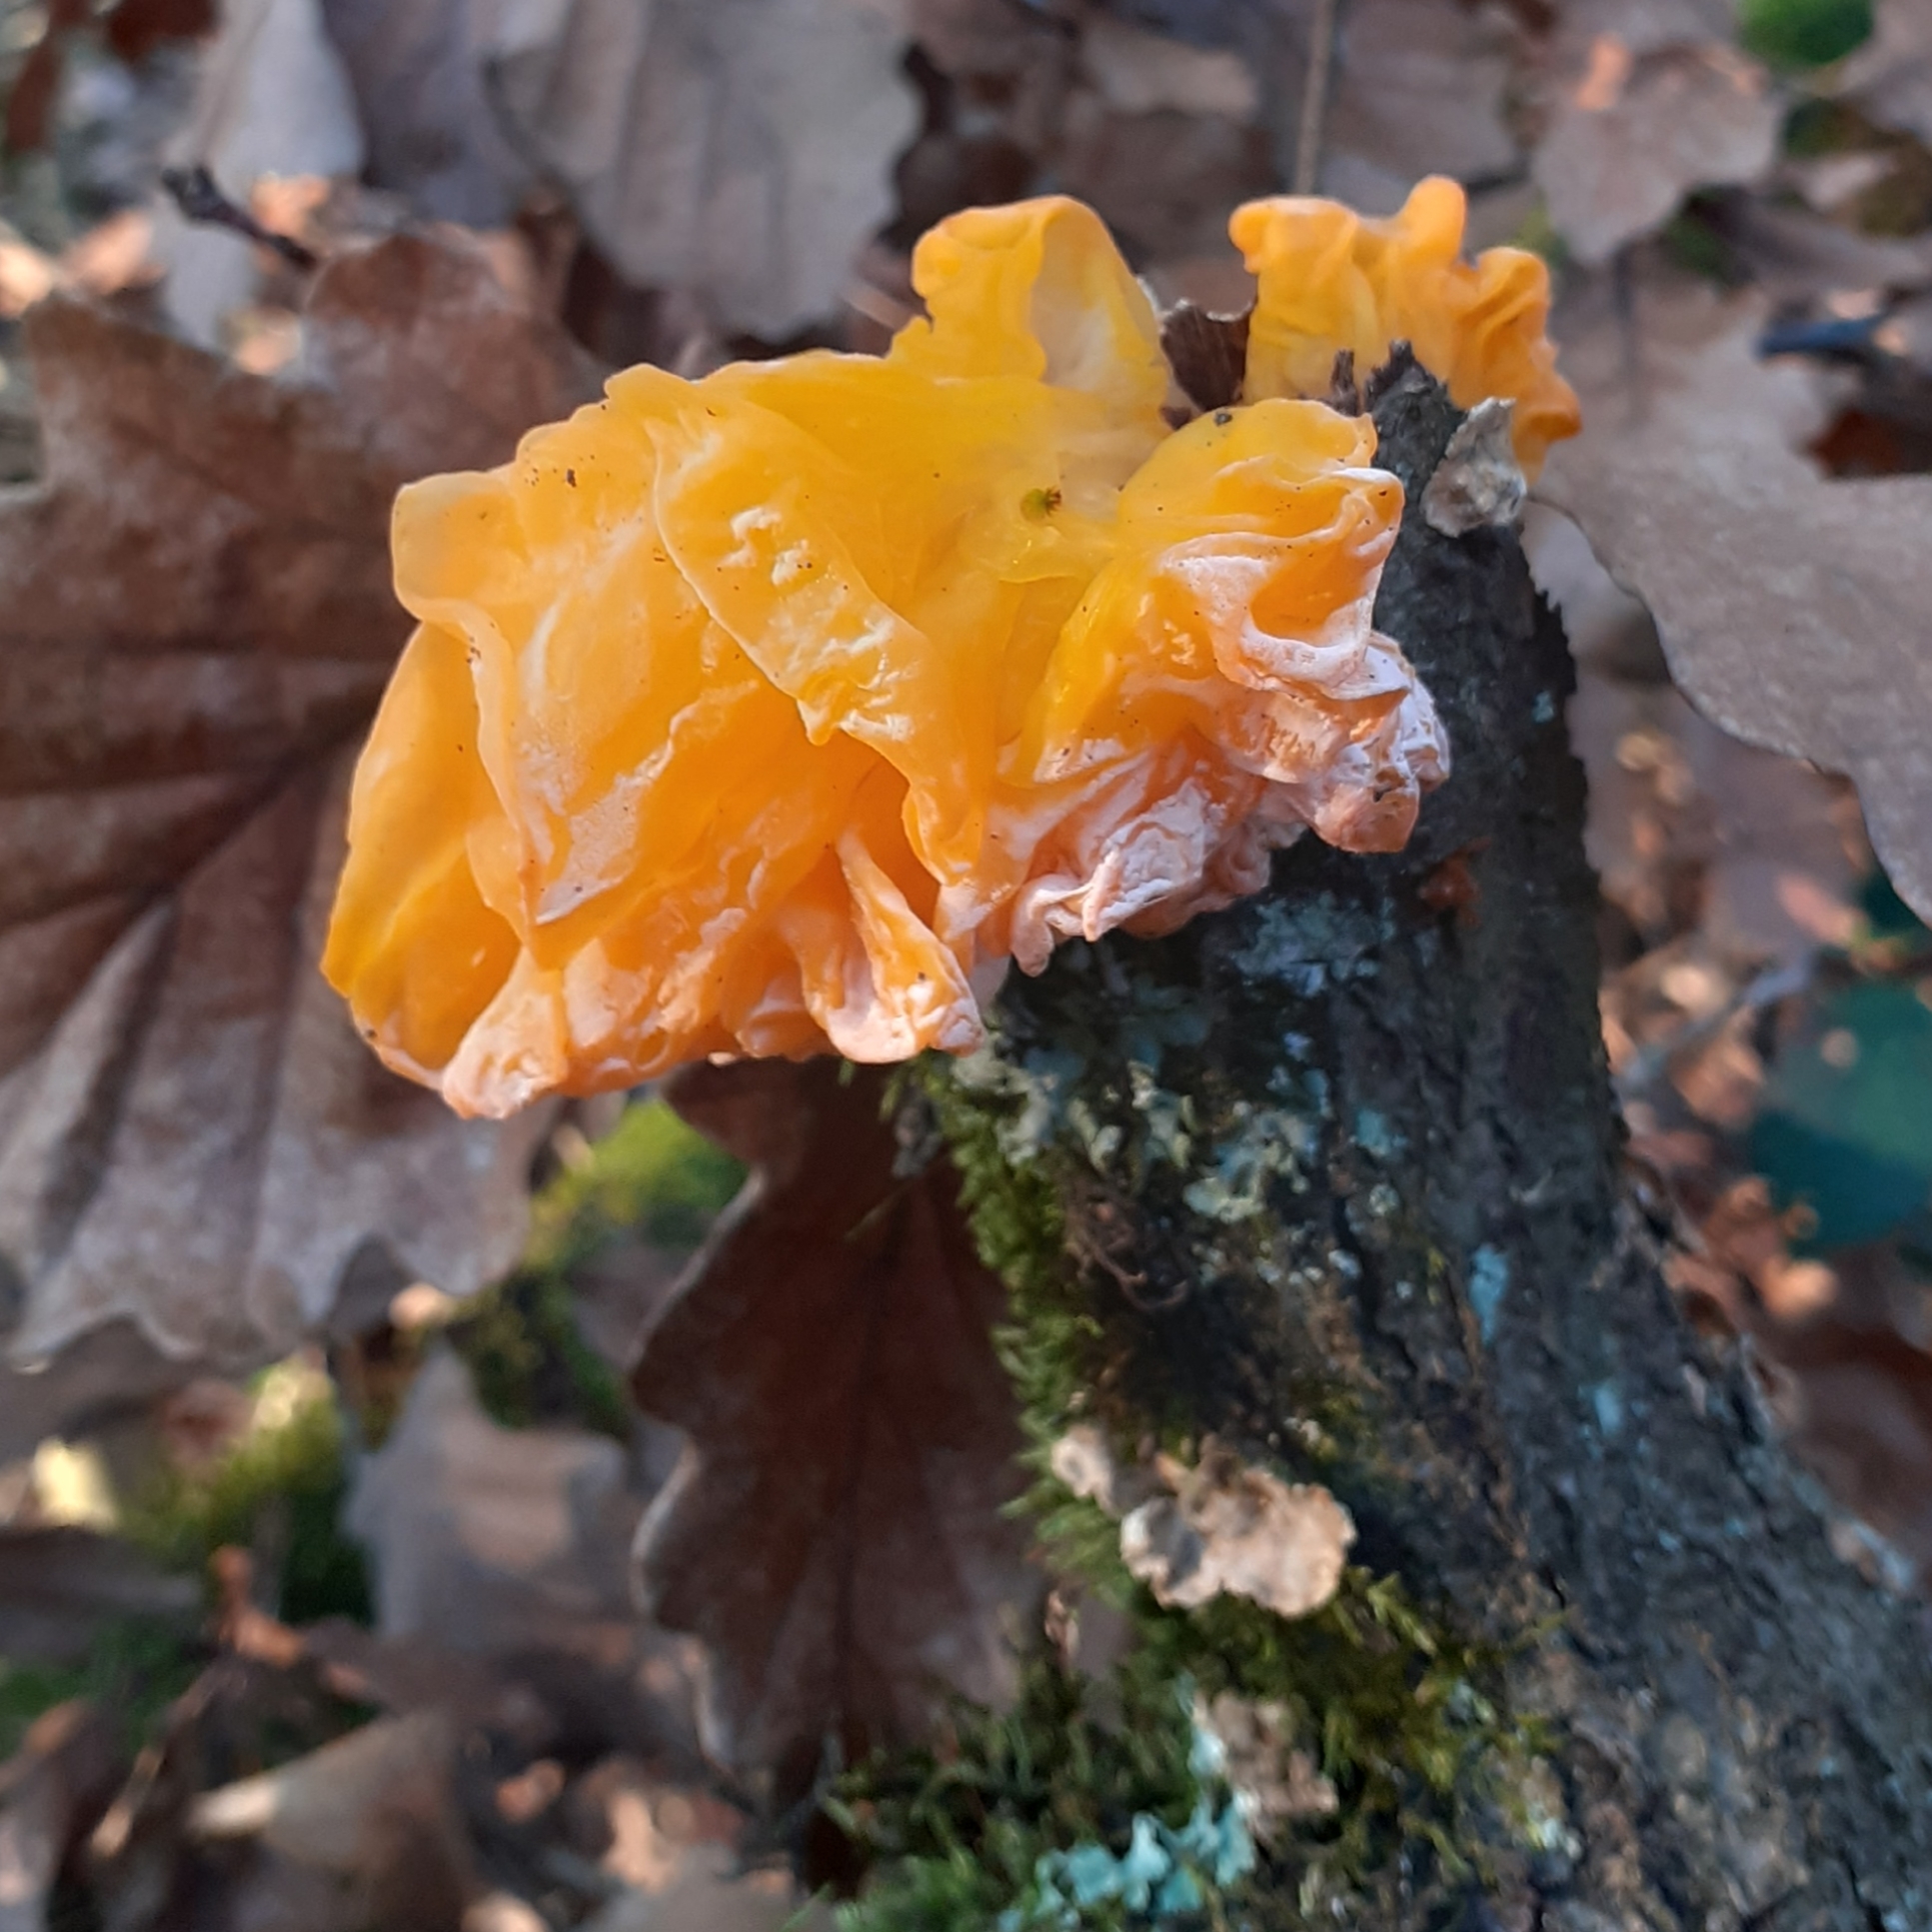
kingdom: Fungi
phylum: Basidiomycota
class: Tremellomycetes
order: Tremellales
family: Naemateliaceae
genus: Naematelia
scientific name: Naematelia aurantia
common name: Golden ear
